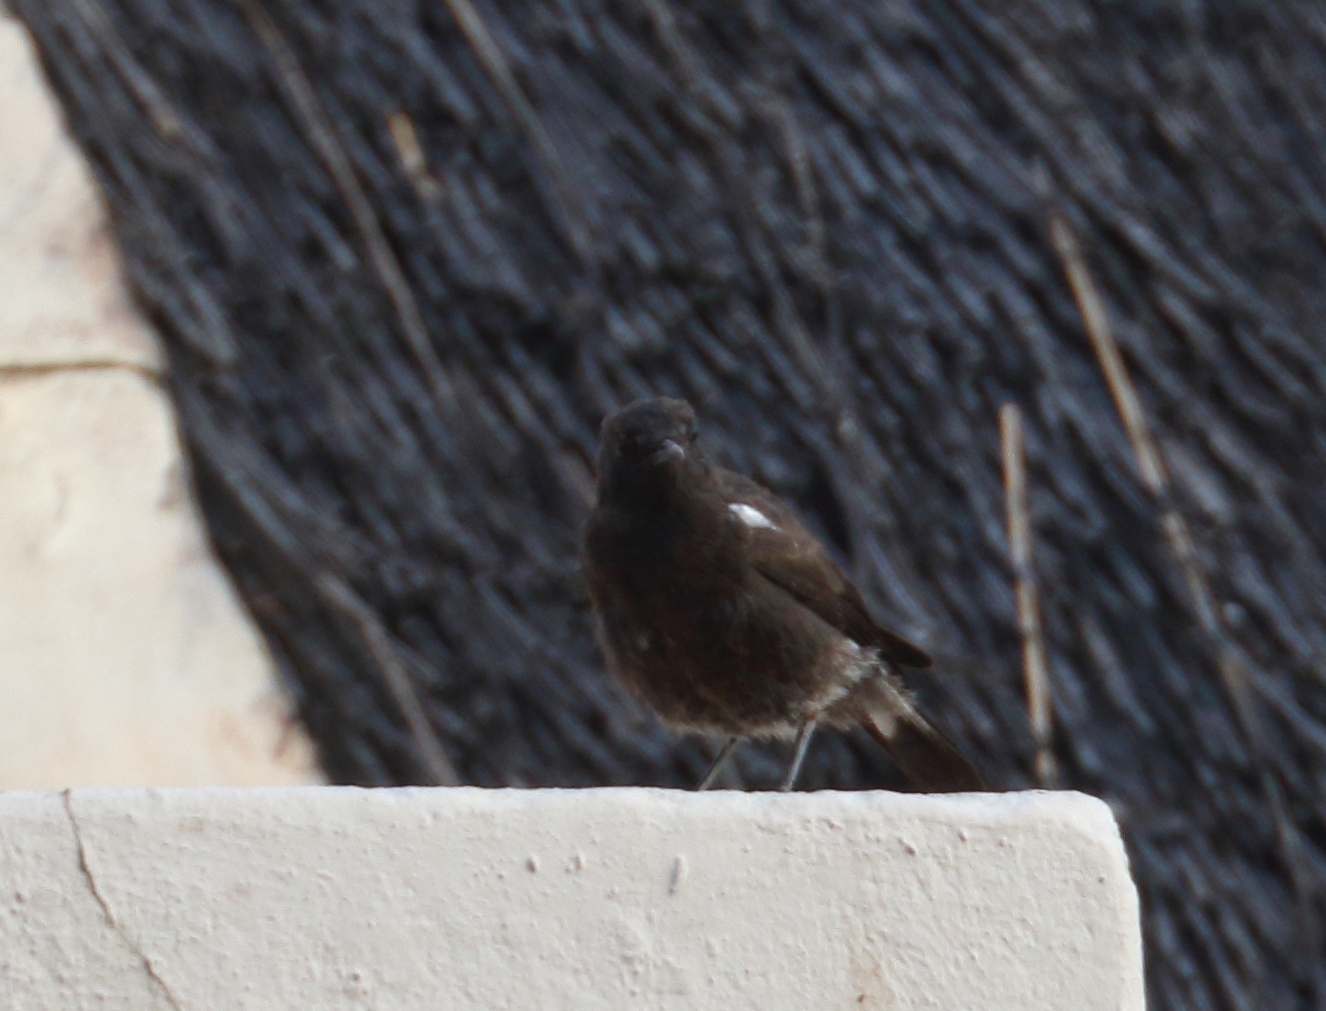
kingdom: Animalia
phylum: Chordata
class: Aves
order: Passeriformes
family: Muscicapidae
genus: Oenanthe
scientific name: Oenanthe monticola
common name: Mountain wheatear
